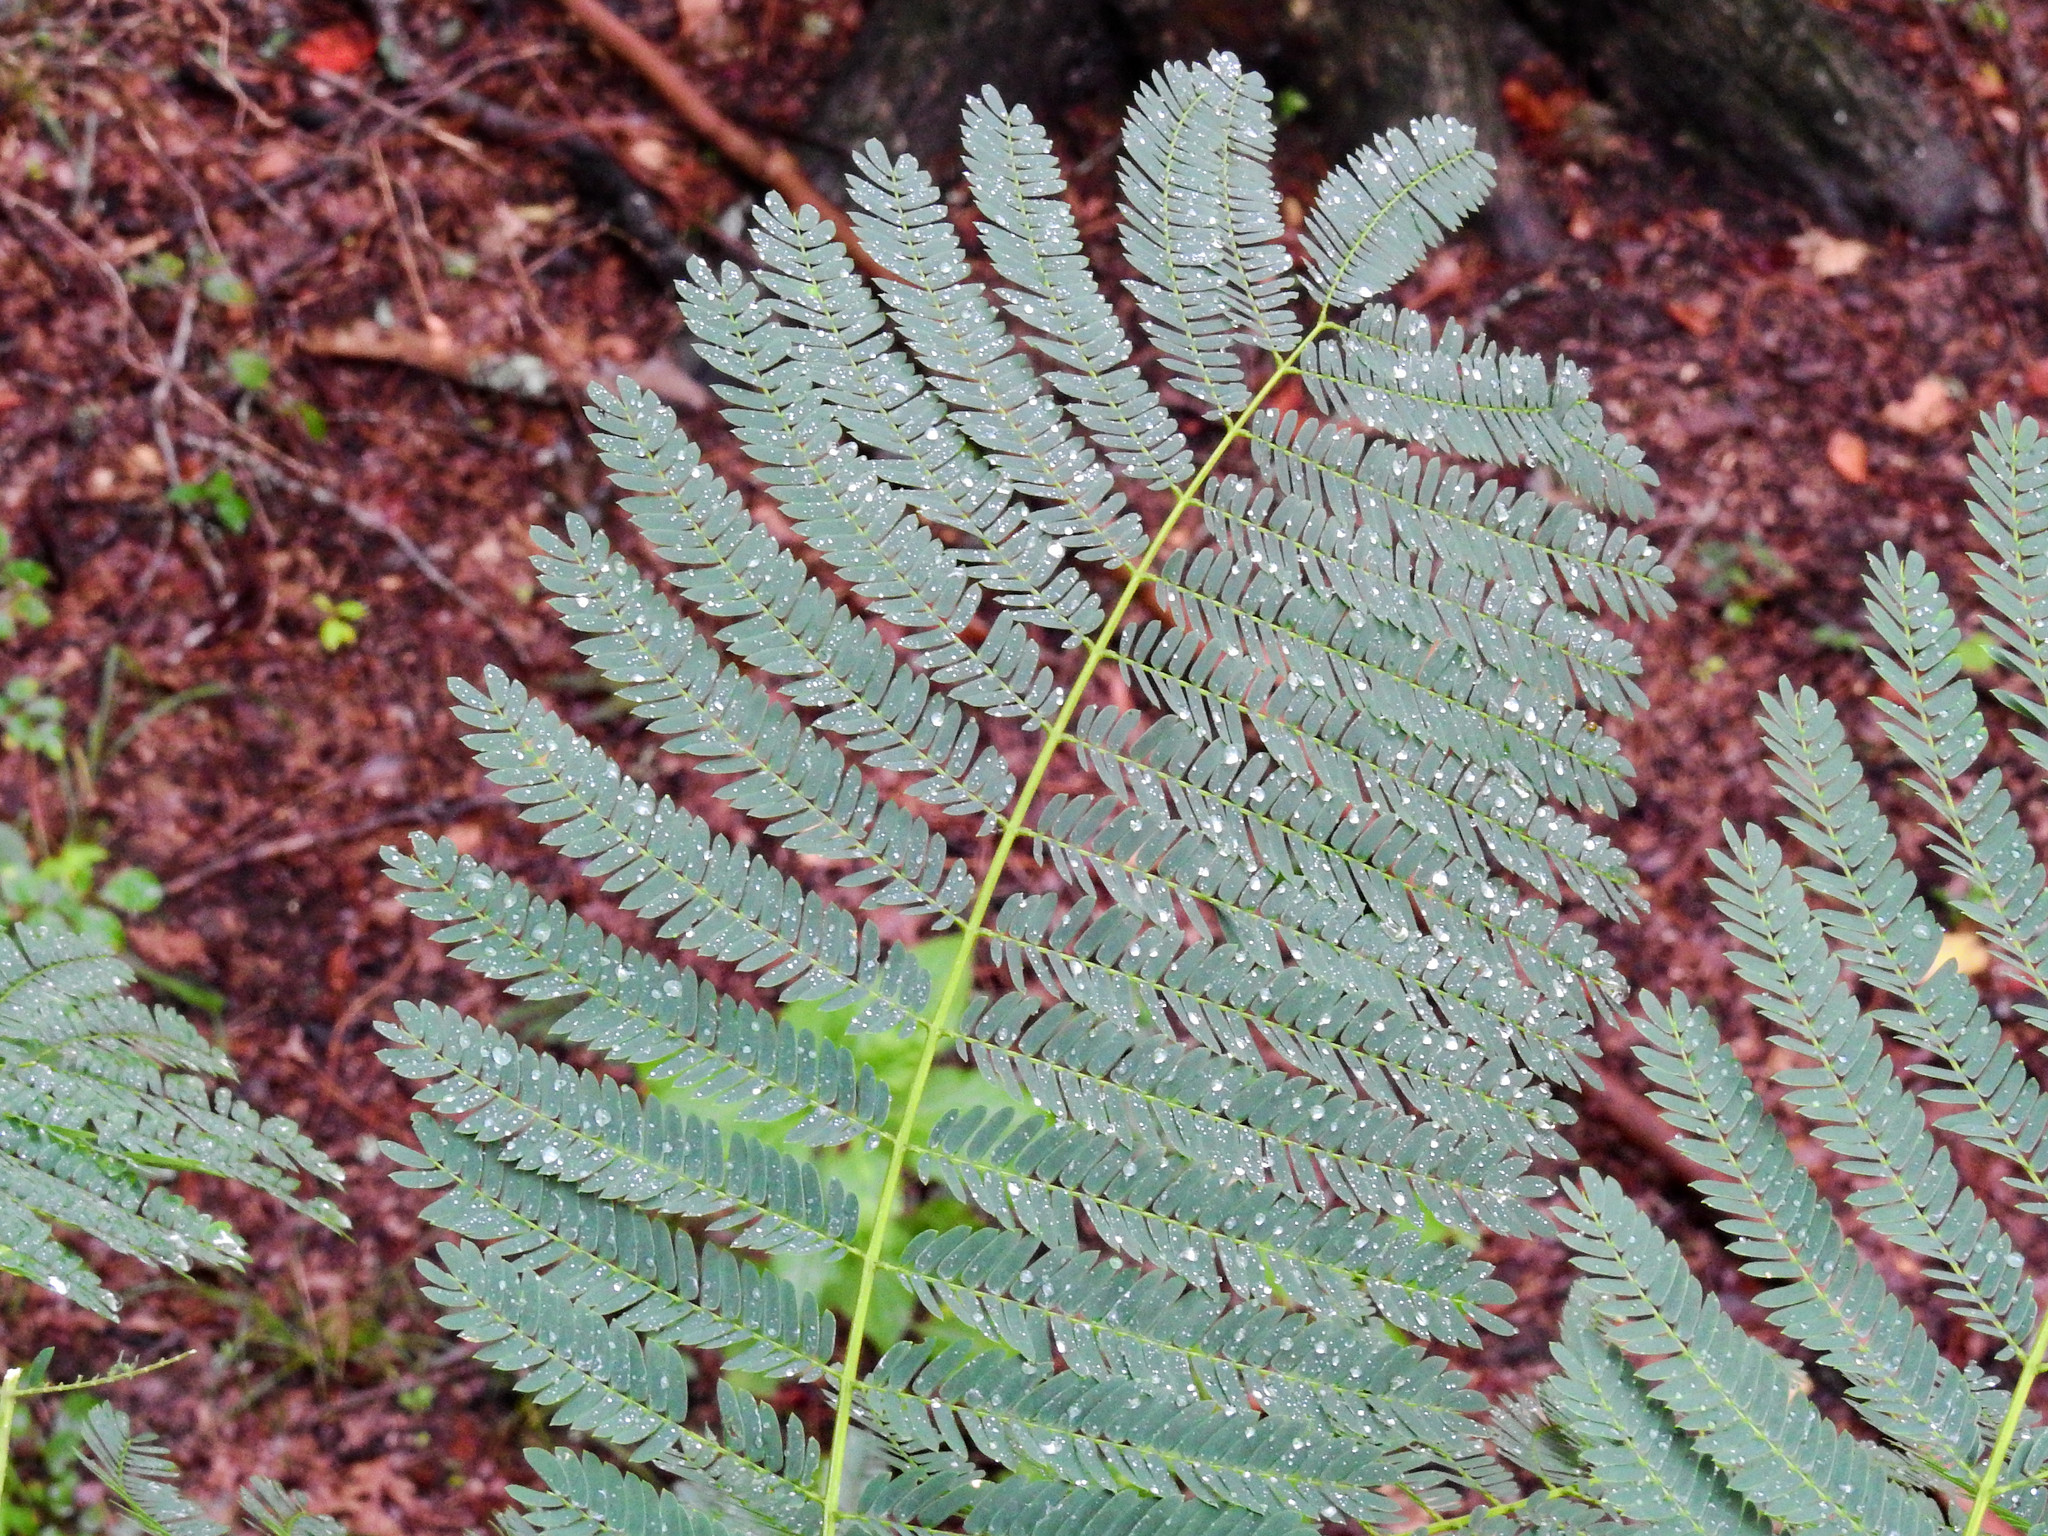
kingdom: Plantae
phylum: Tracheophyta
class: Magnoliopsida
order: Fabales
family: Fabaceae
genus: Albizia
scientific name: Albizia julibrissin
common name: Silktree
